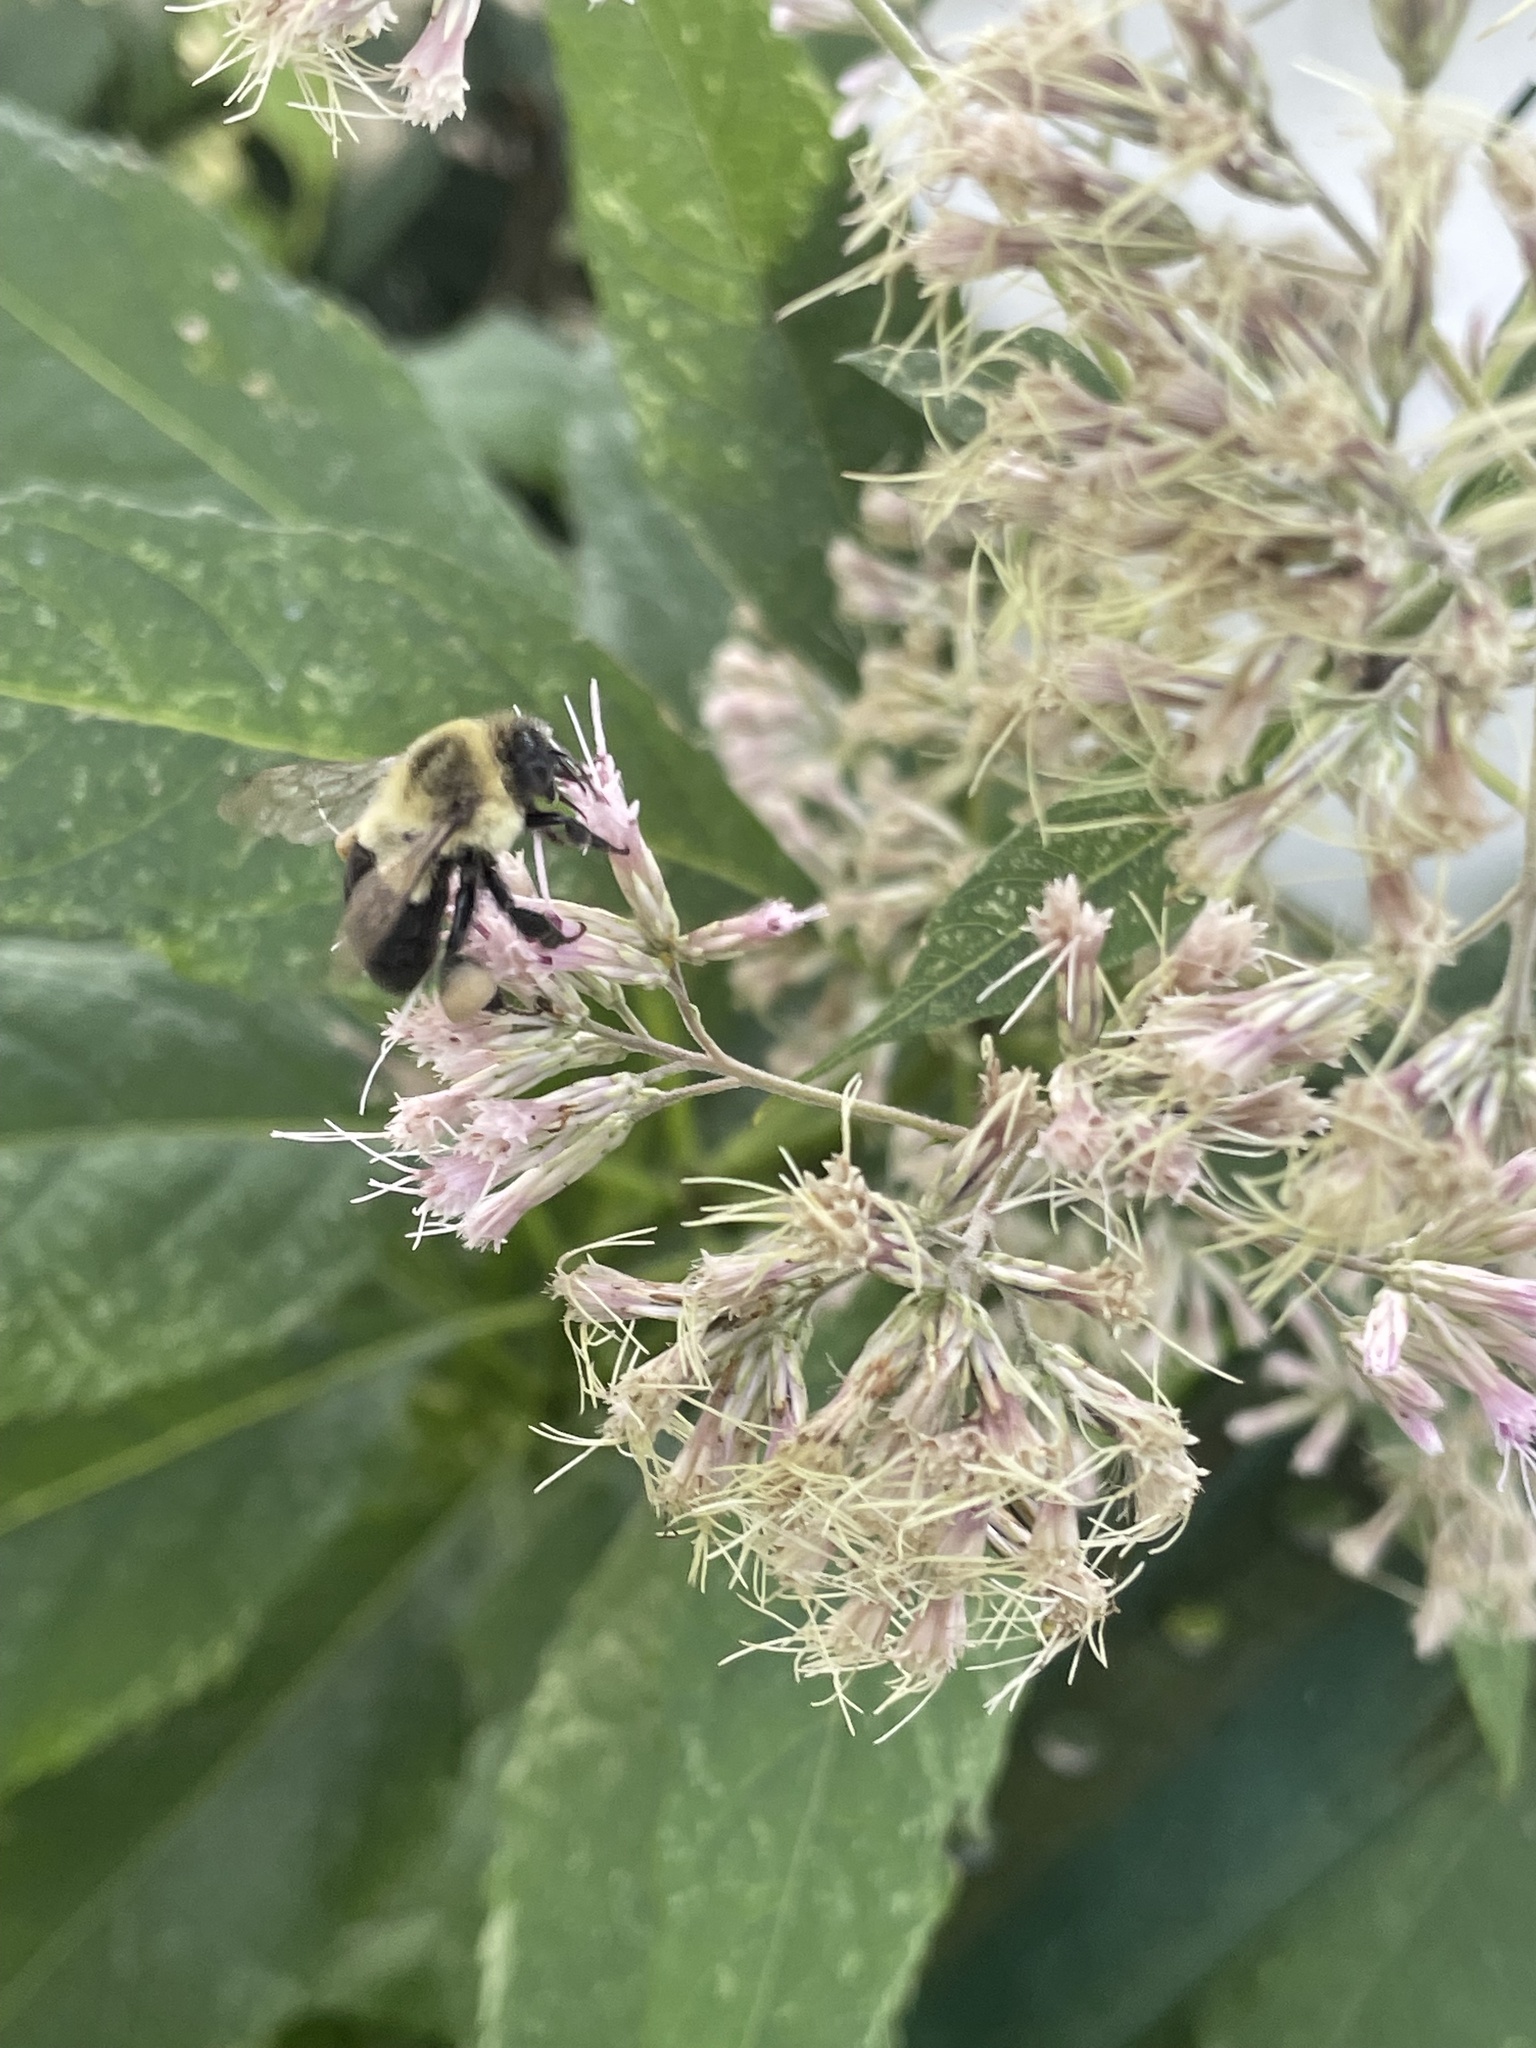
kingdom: Animalia
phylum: Arthropoda
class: Insecta
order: Hymenoptera
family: Apidae
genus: Bombus
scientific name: Bombus impatiens
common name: Common eastern bumble bee
